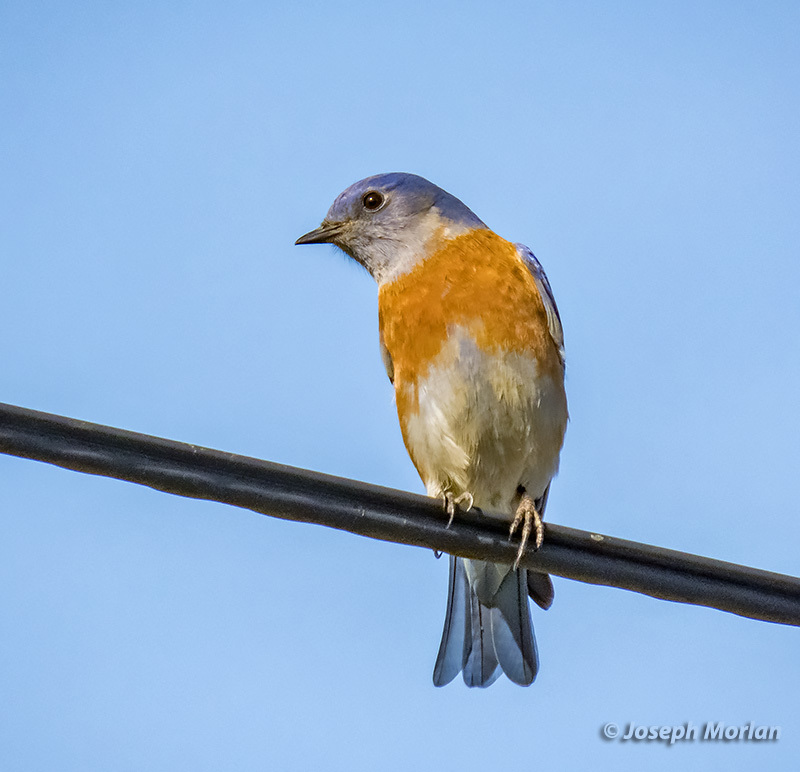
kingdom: Animalia
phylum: Chordata
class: Aves
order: Passeriformes
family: Turdidae
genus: Sialia
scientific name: Sialia mexicana
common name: Western bluebird
